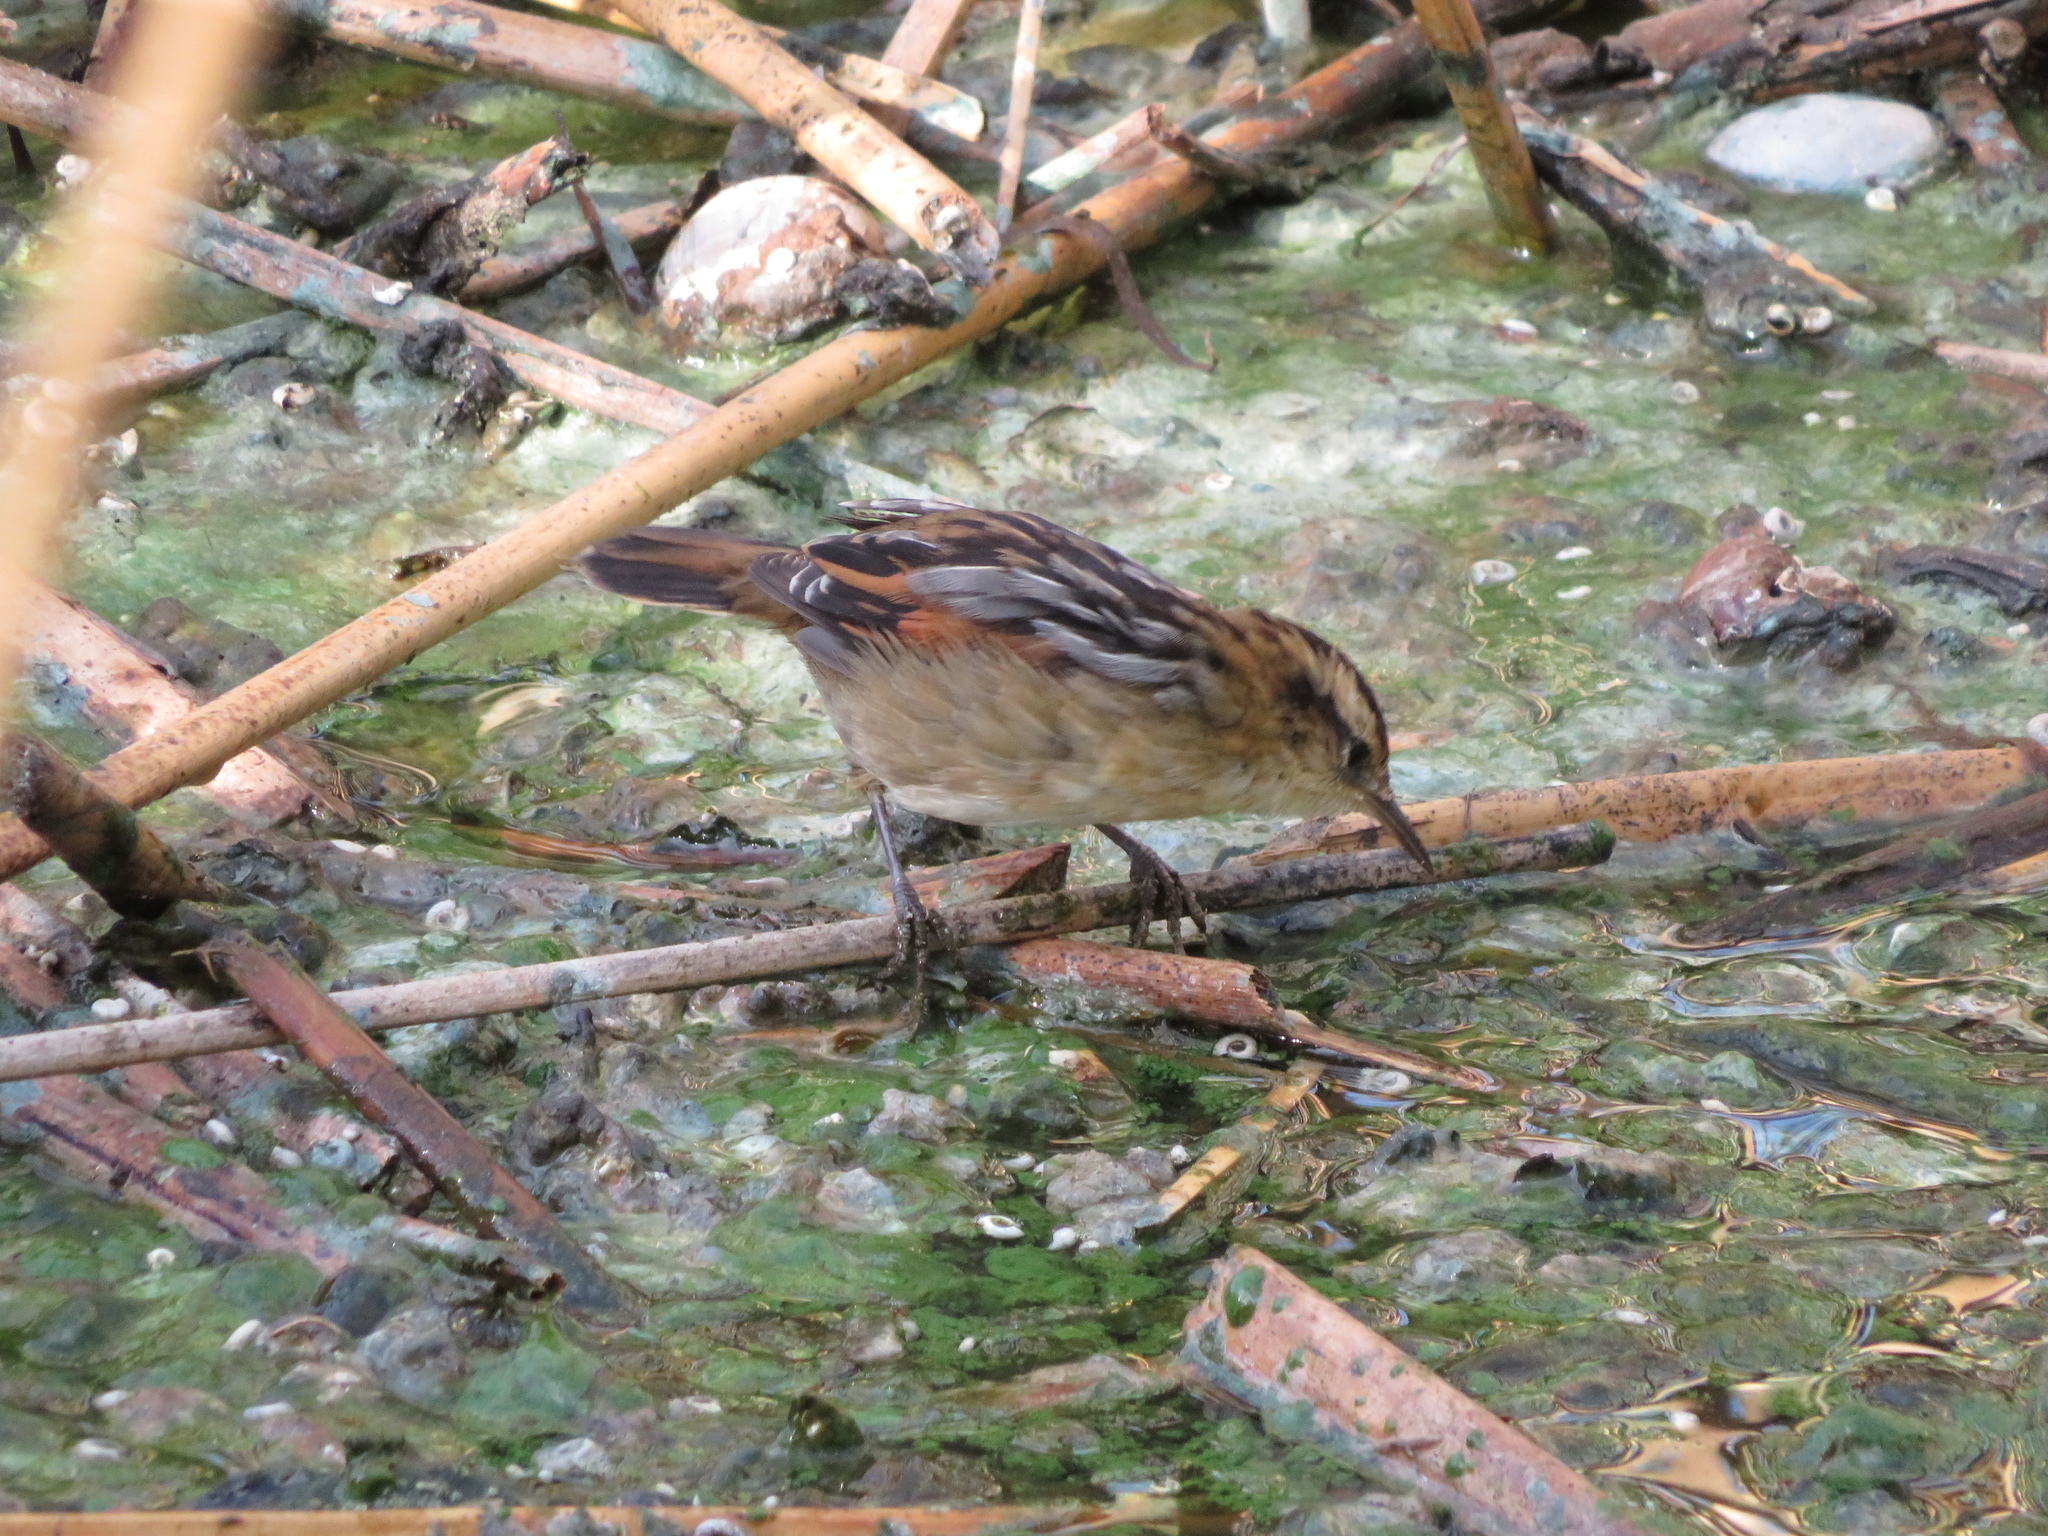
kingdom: Animalia
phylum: Chordata
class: Aves
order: Passeriformes
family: Furnariidae
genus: Phleocryptes
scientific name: Phleocryptes melanops
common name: Wren-like rushbird
